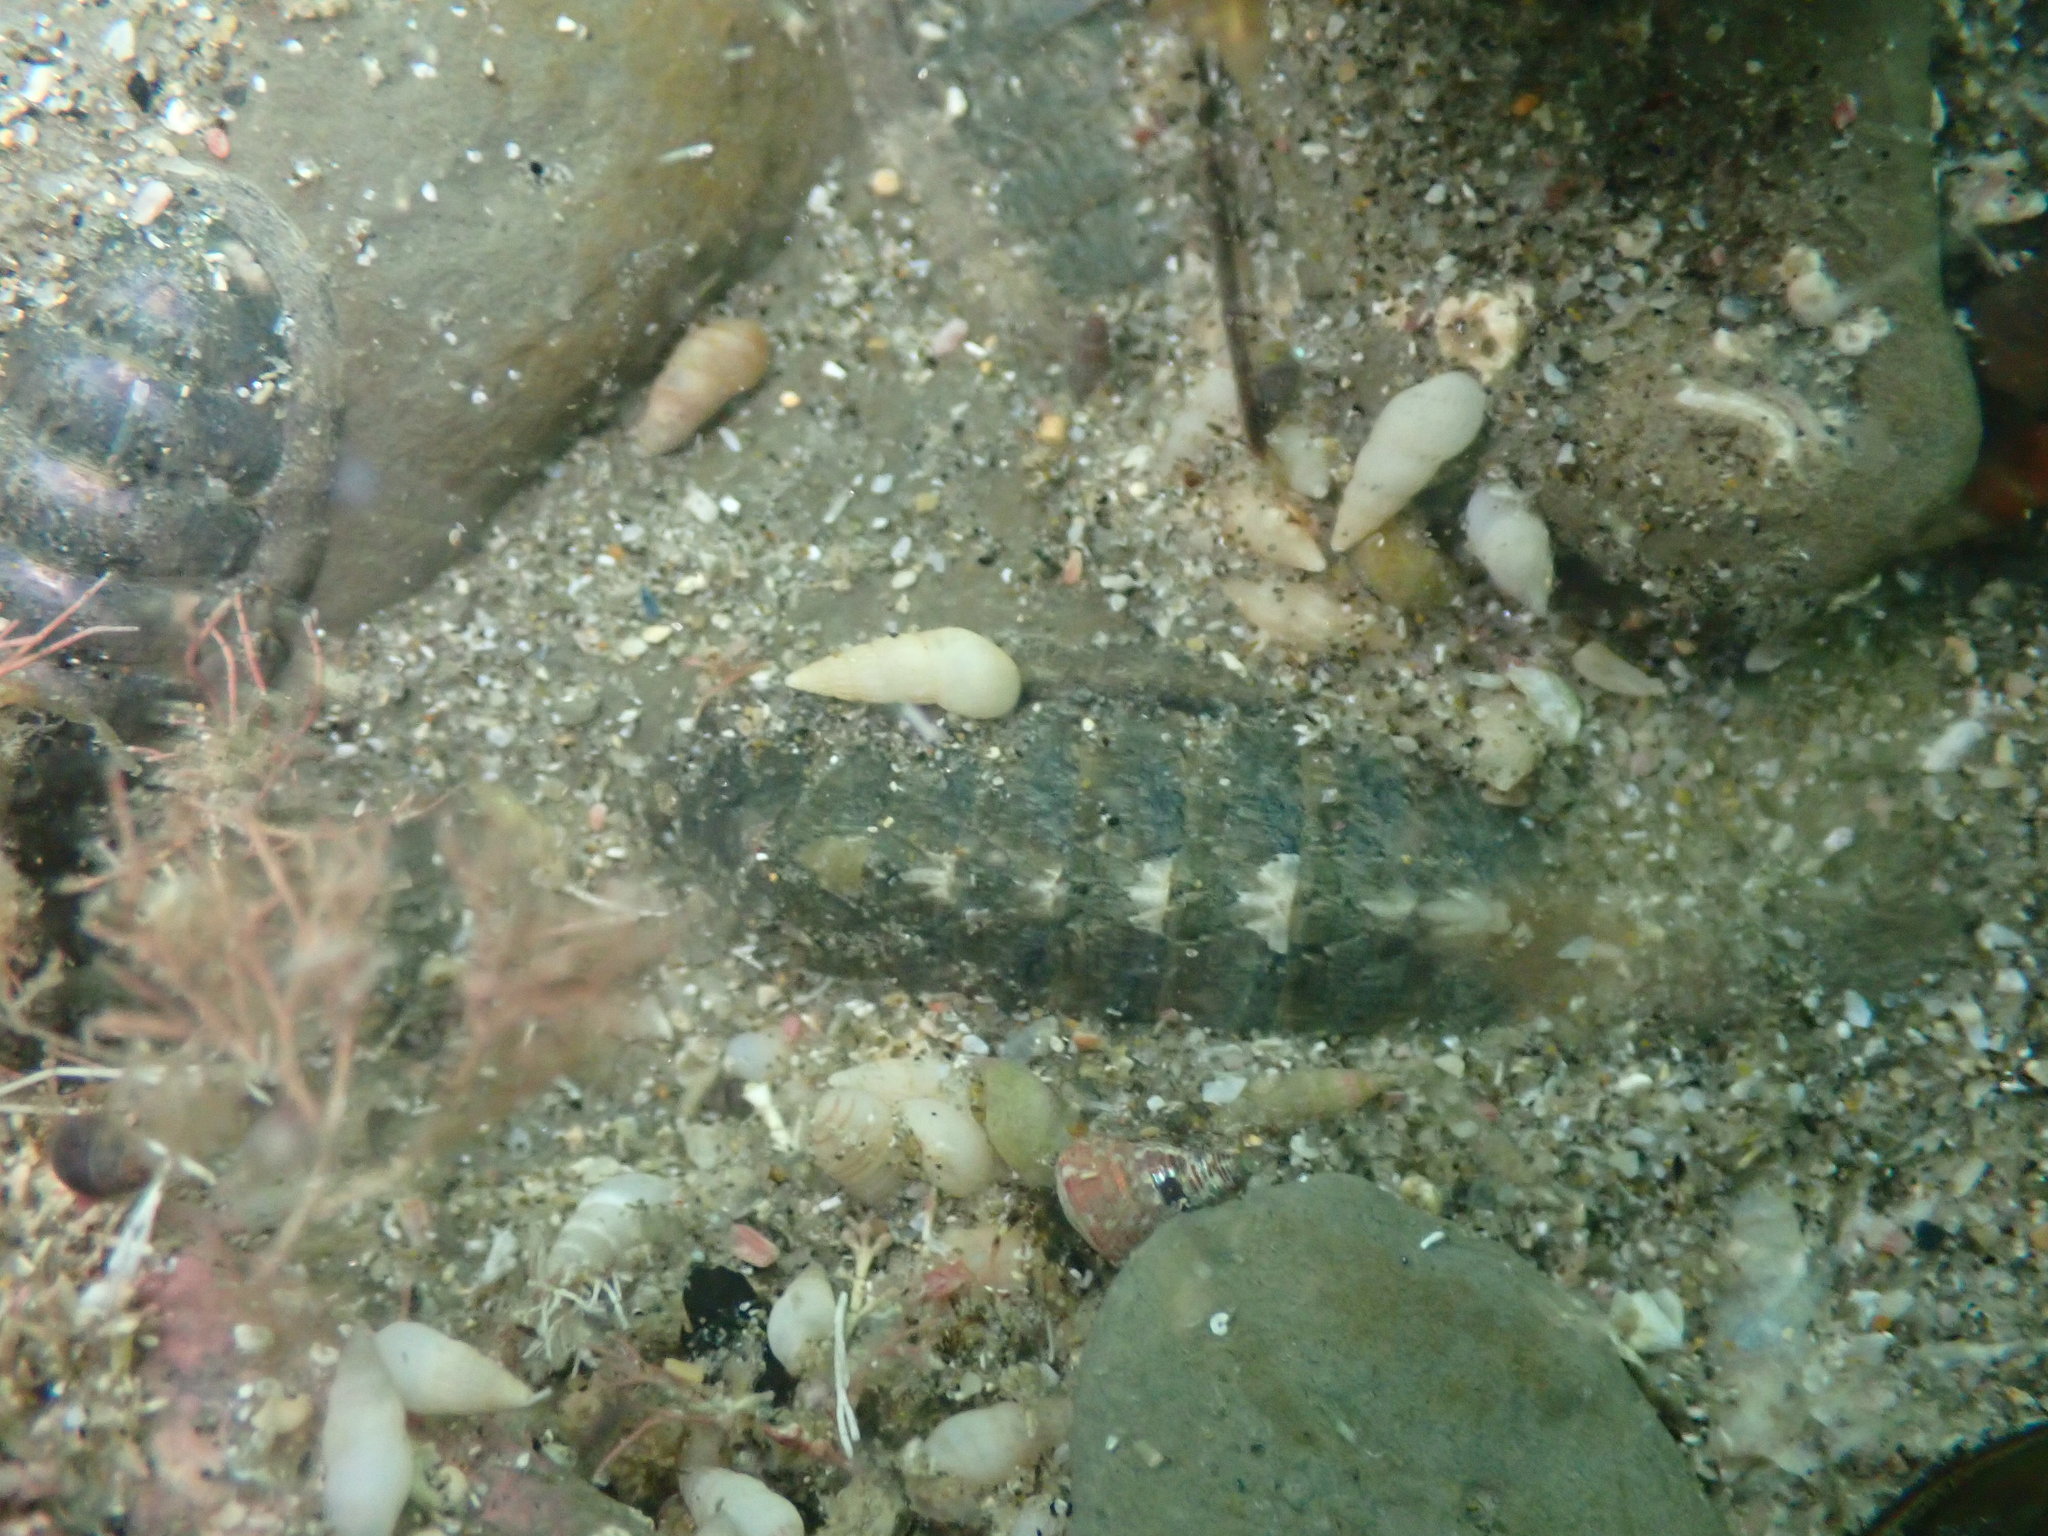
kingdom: Animalia
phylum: Mollusca
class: Polyplacophora
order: Chitonida
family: Ischnochitonidae
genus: Ischnochiton
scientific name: Ischnochiton maorianus
